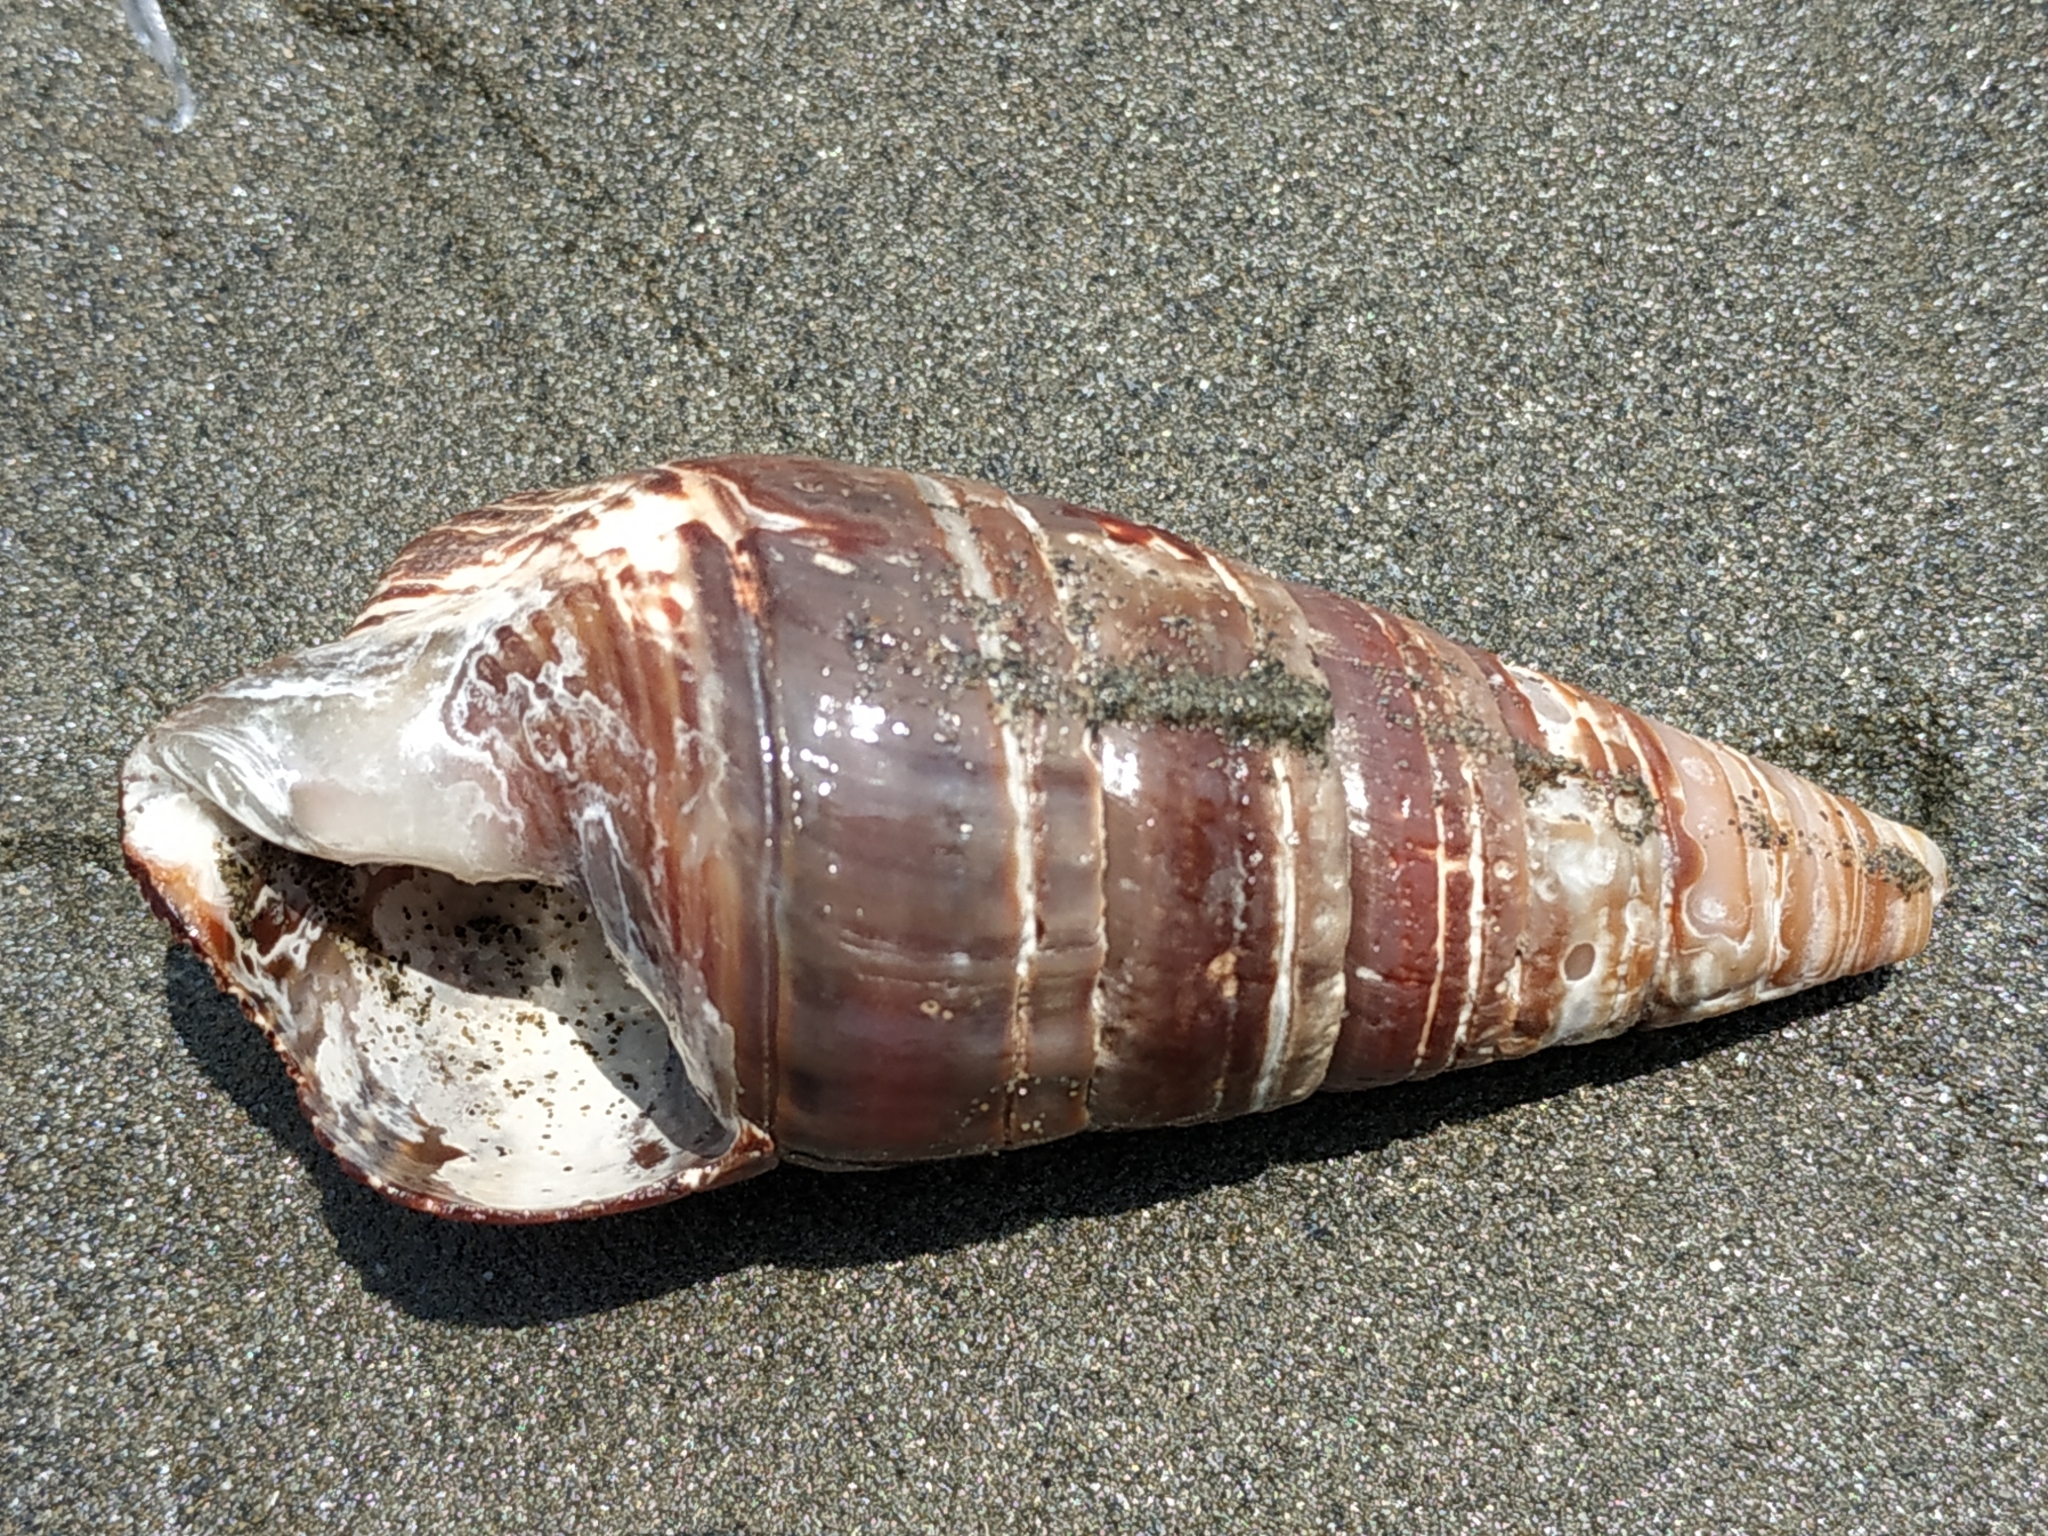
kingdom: Animalia
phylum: Mollusca
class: Gastropoda
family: Potamididae
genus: Terebralia
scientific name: Terebralia palustris
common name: Mangrove whelk
